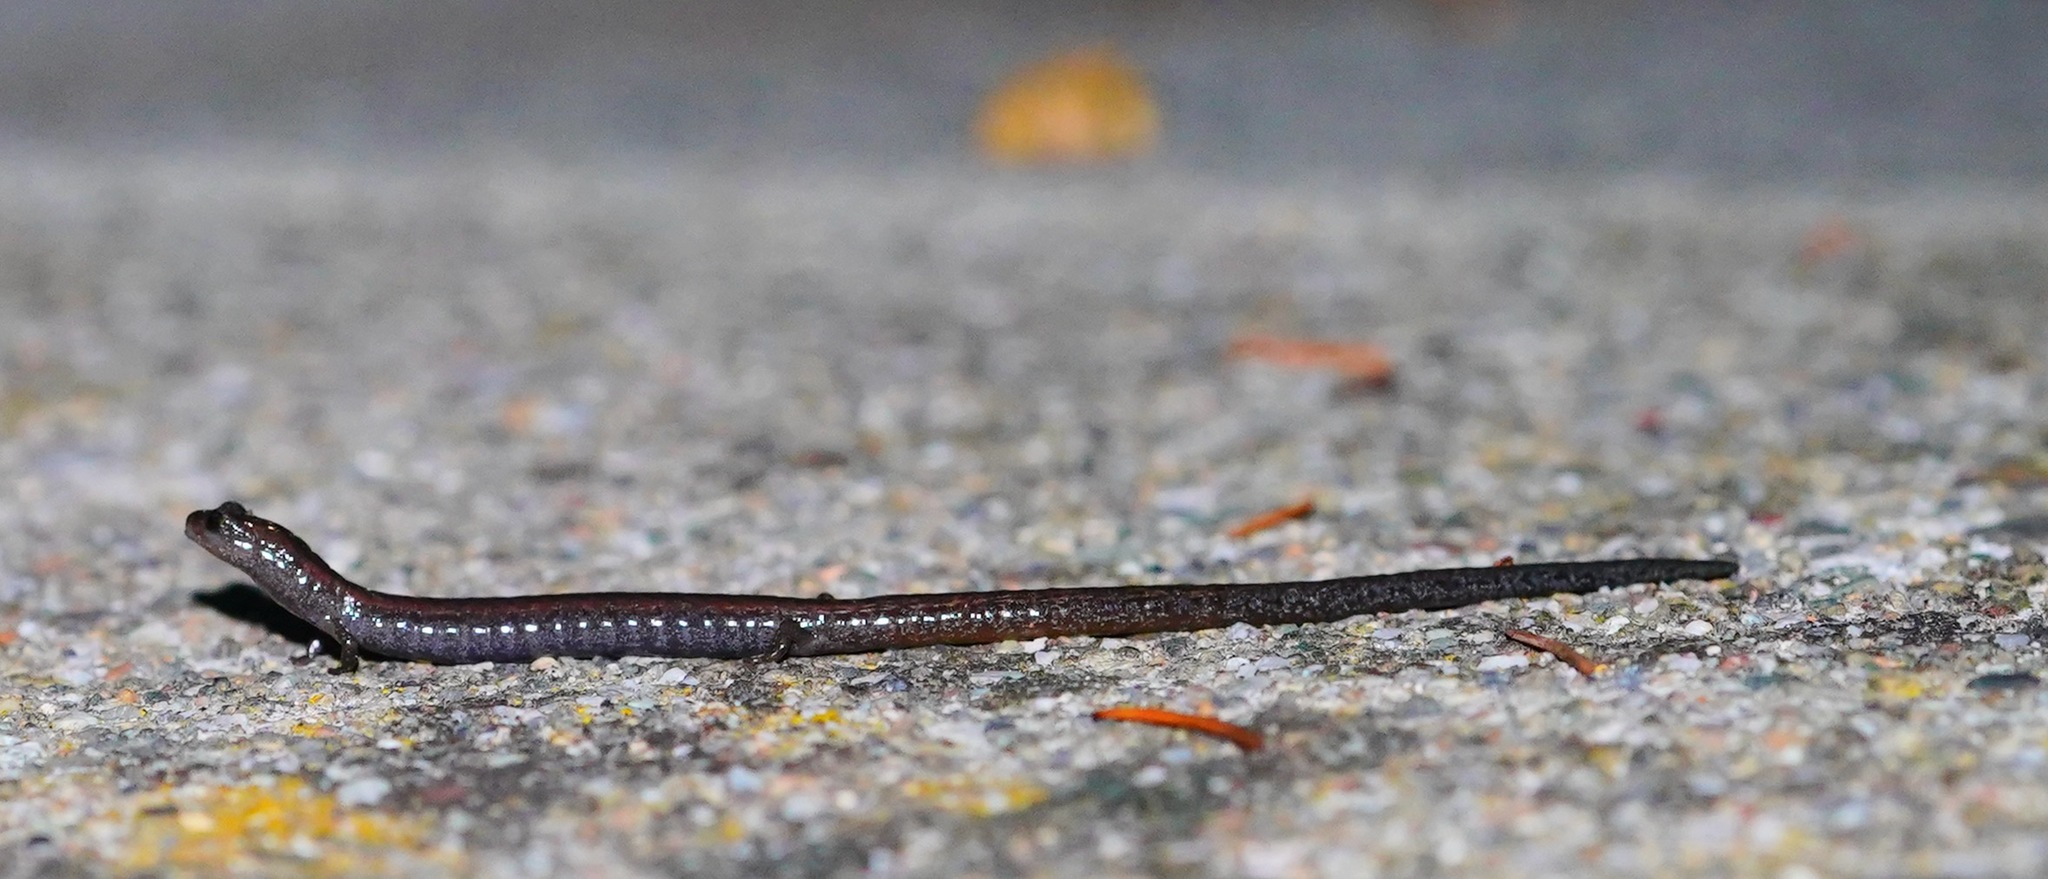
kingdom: Animalia
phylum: Chordata
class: Amphibia
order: Caudata
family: Plethodontidae
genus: Batrachoseps
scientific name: Batrachoseps attenuatus
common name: California slender salamander
